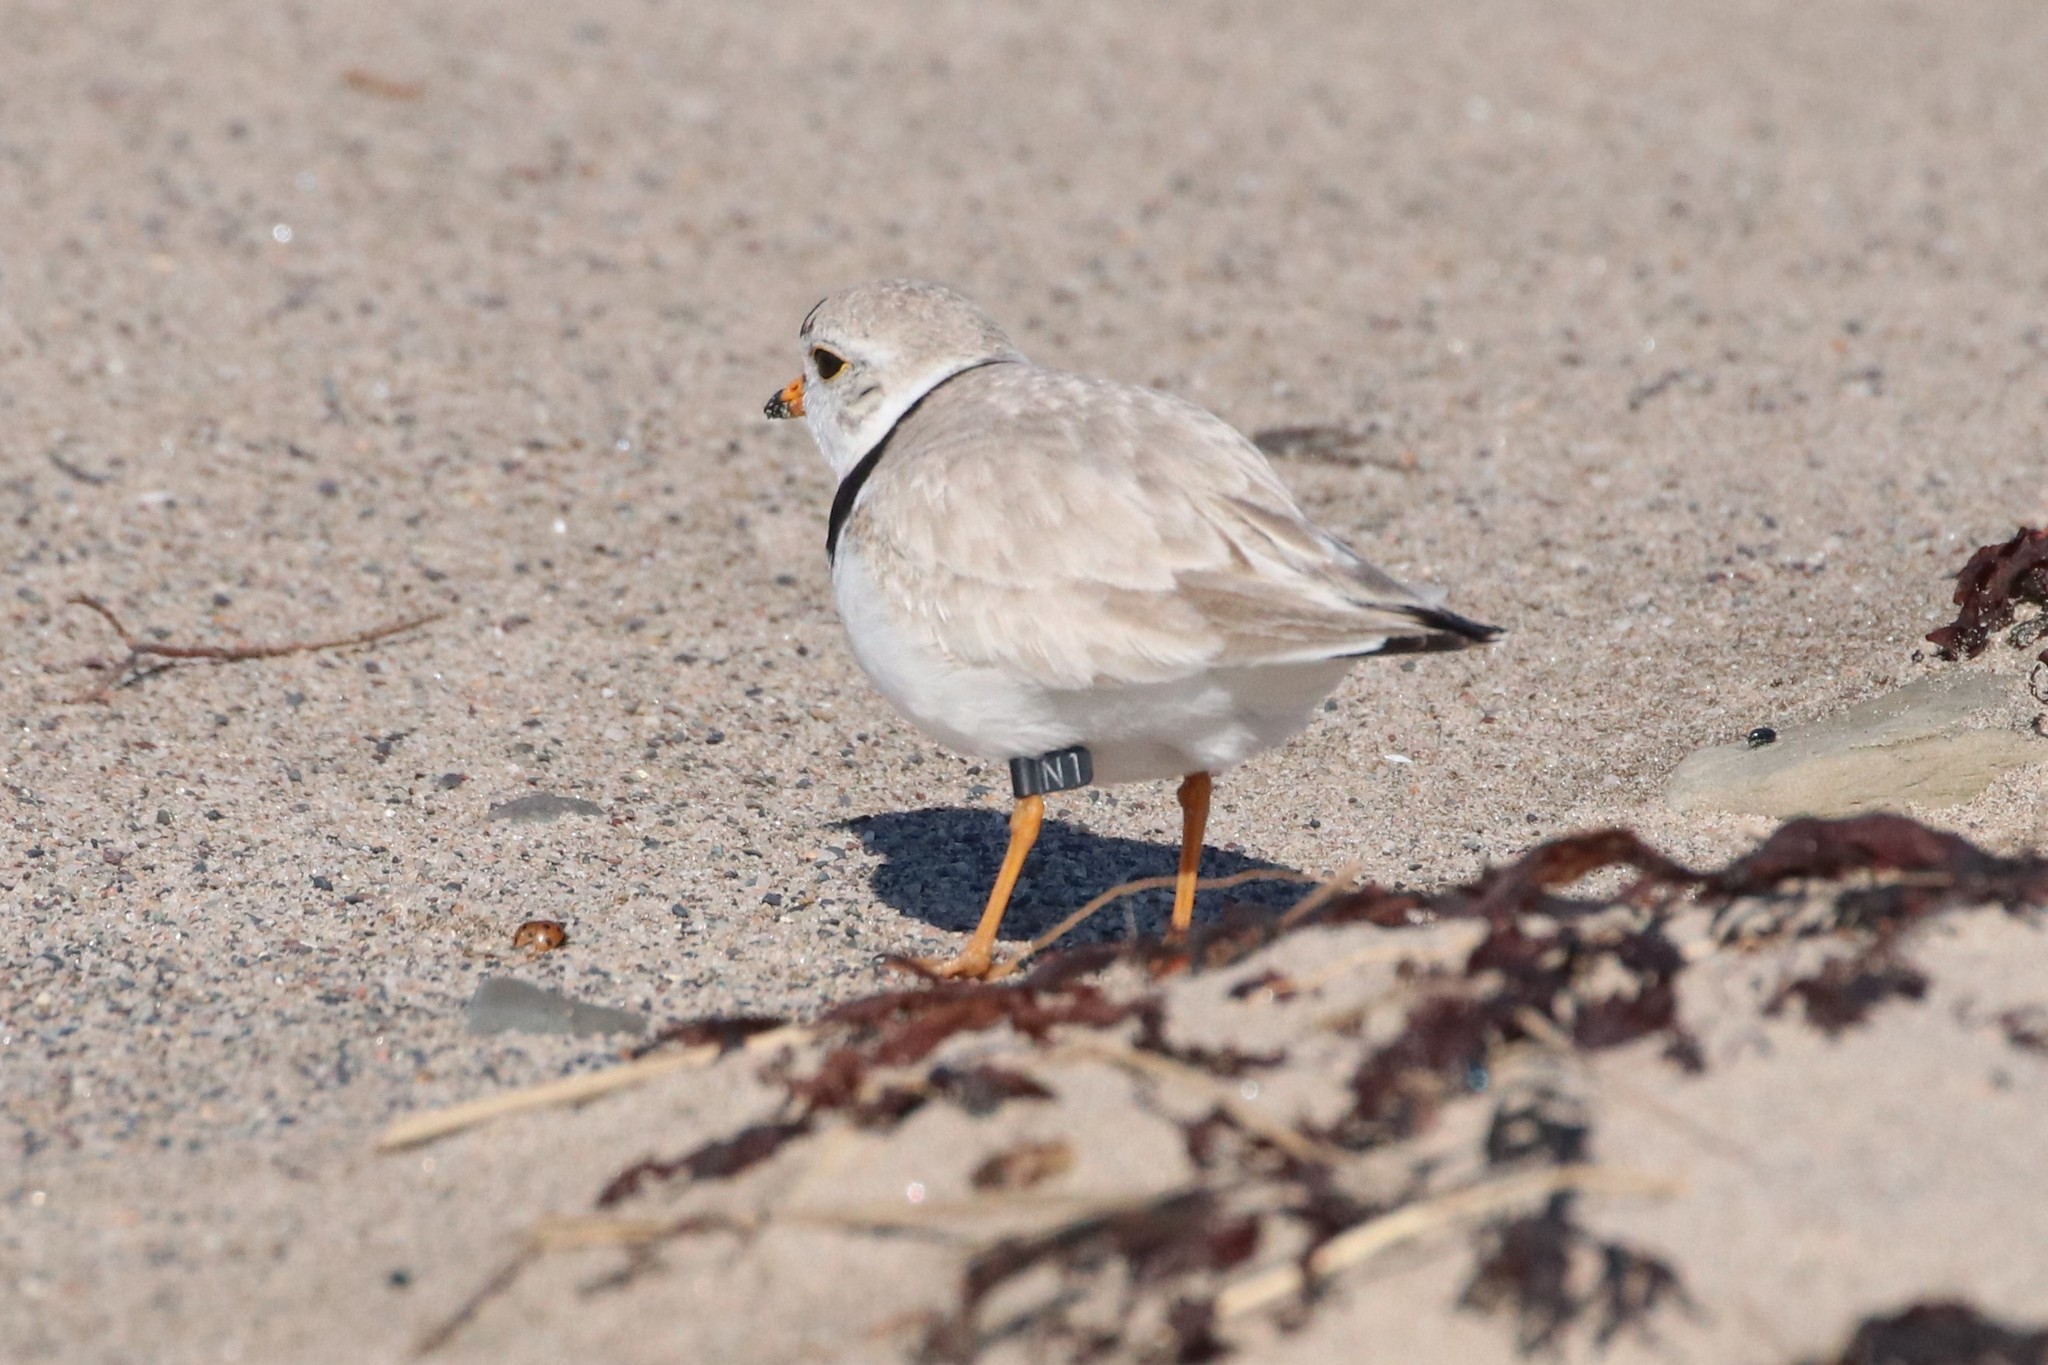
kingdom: Animalia
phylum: Chordata
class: Aves
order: Charadriiformes
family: Charadriidae
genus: Charadrius
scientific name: Charadrius melodus
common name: Piping plover
